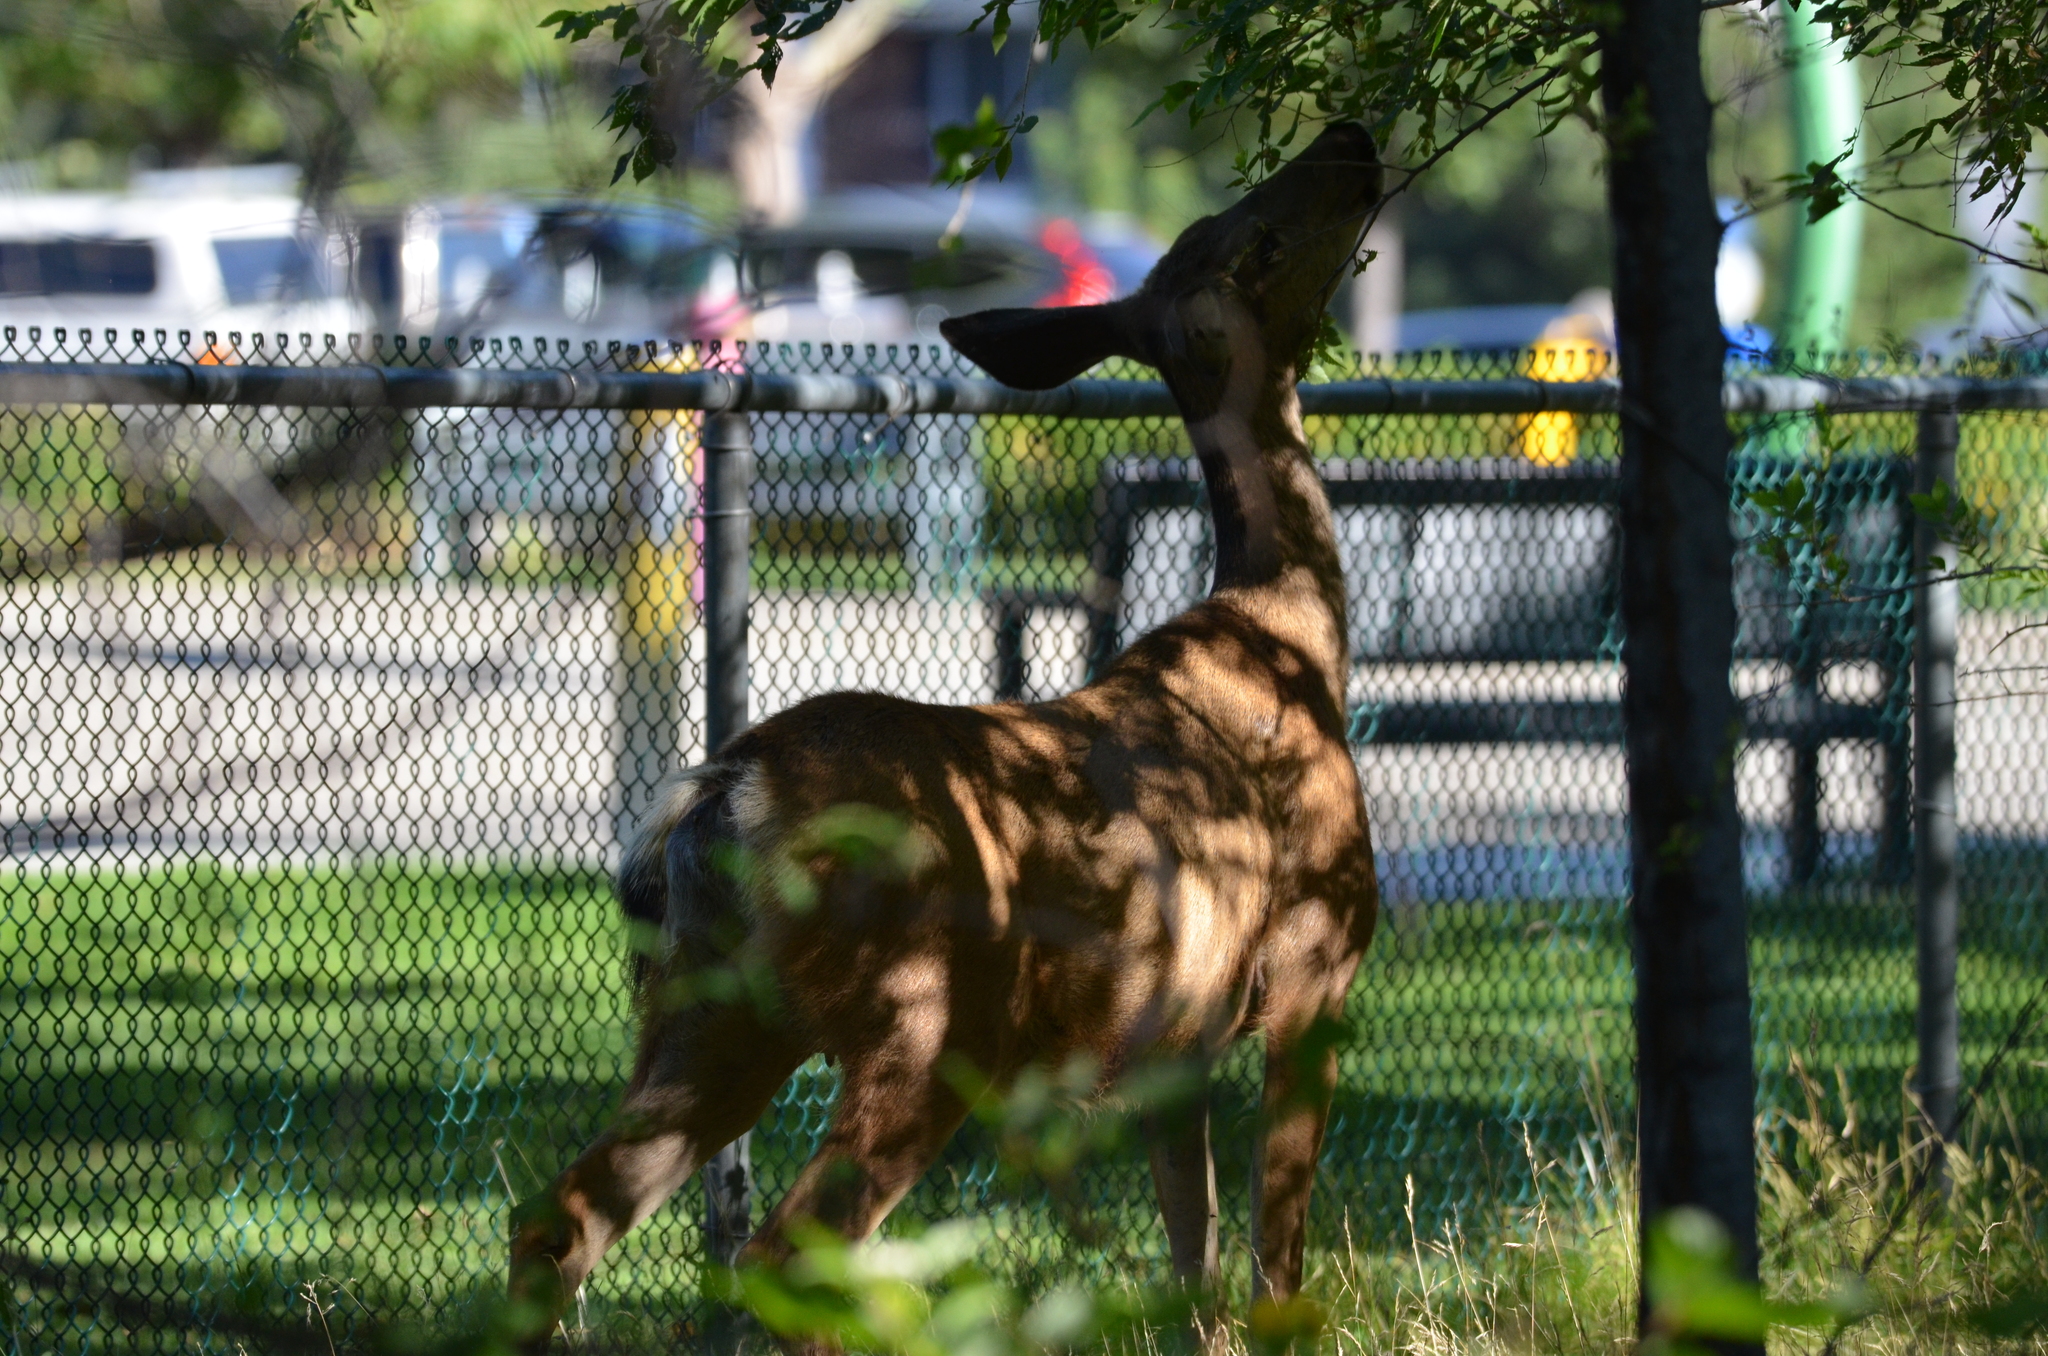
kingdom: Animalia
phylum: Chordata
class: Mammalia
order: Artiodactyla
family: Cervidae
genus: Odocoileus
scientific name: Odocoileus hemionus
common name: Mule deer
